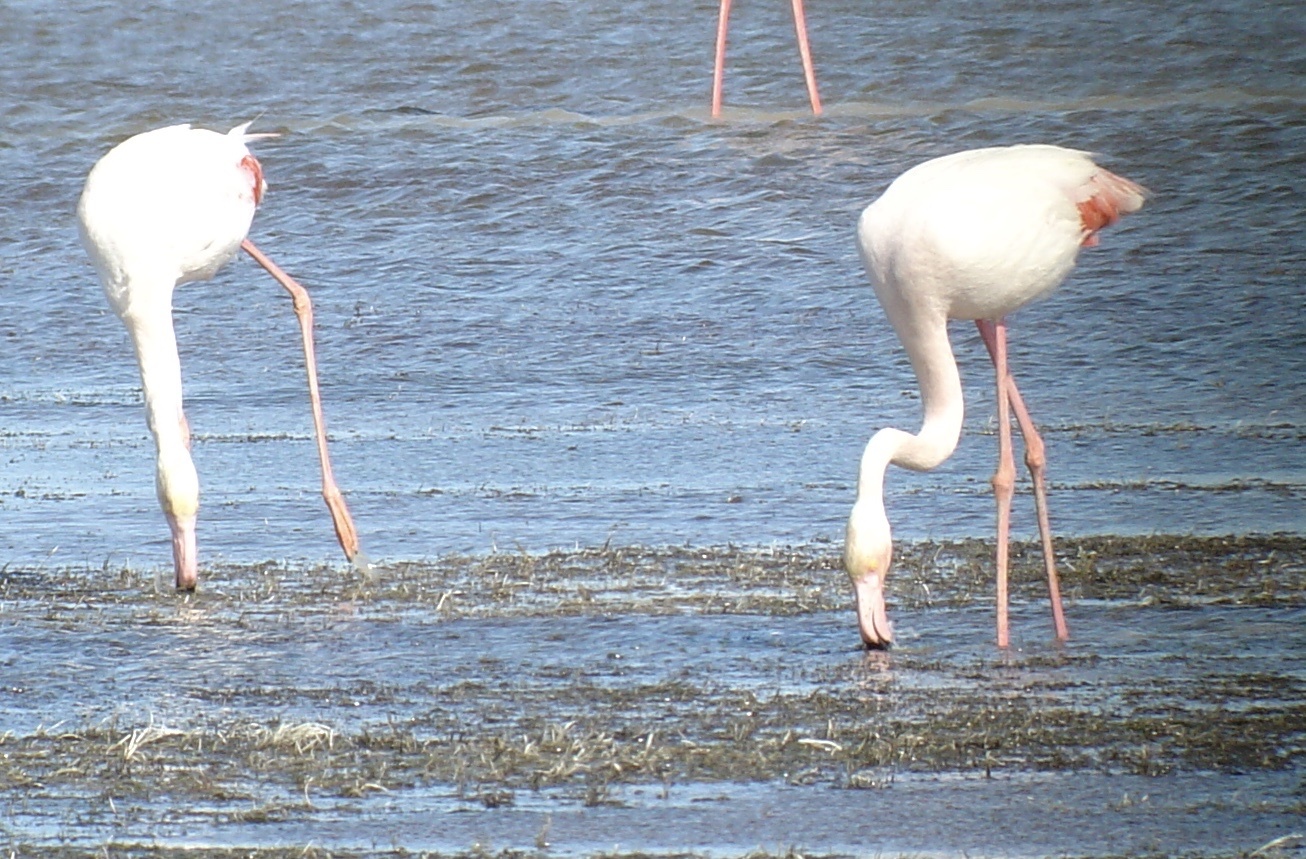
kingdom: Animalia
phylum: Chordata
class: Aves
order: Phoenicopteriformes
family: Phoenicopteridae
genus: Phoenicopterus
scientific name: Phoenicopterus roseus
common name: Greater flamingo
